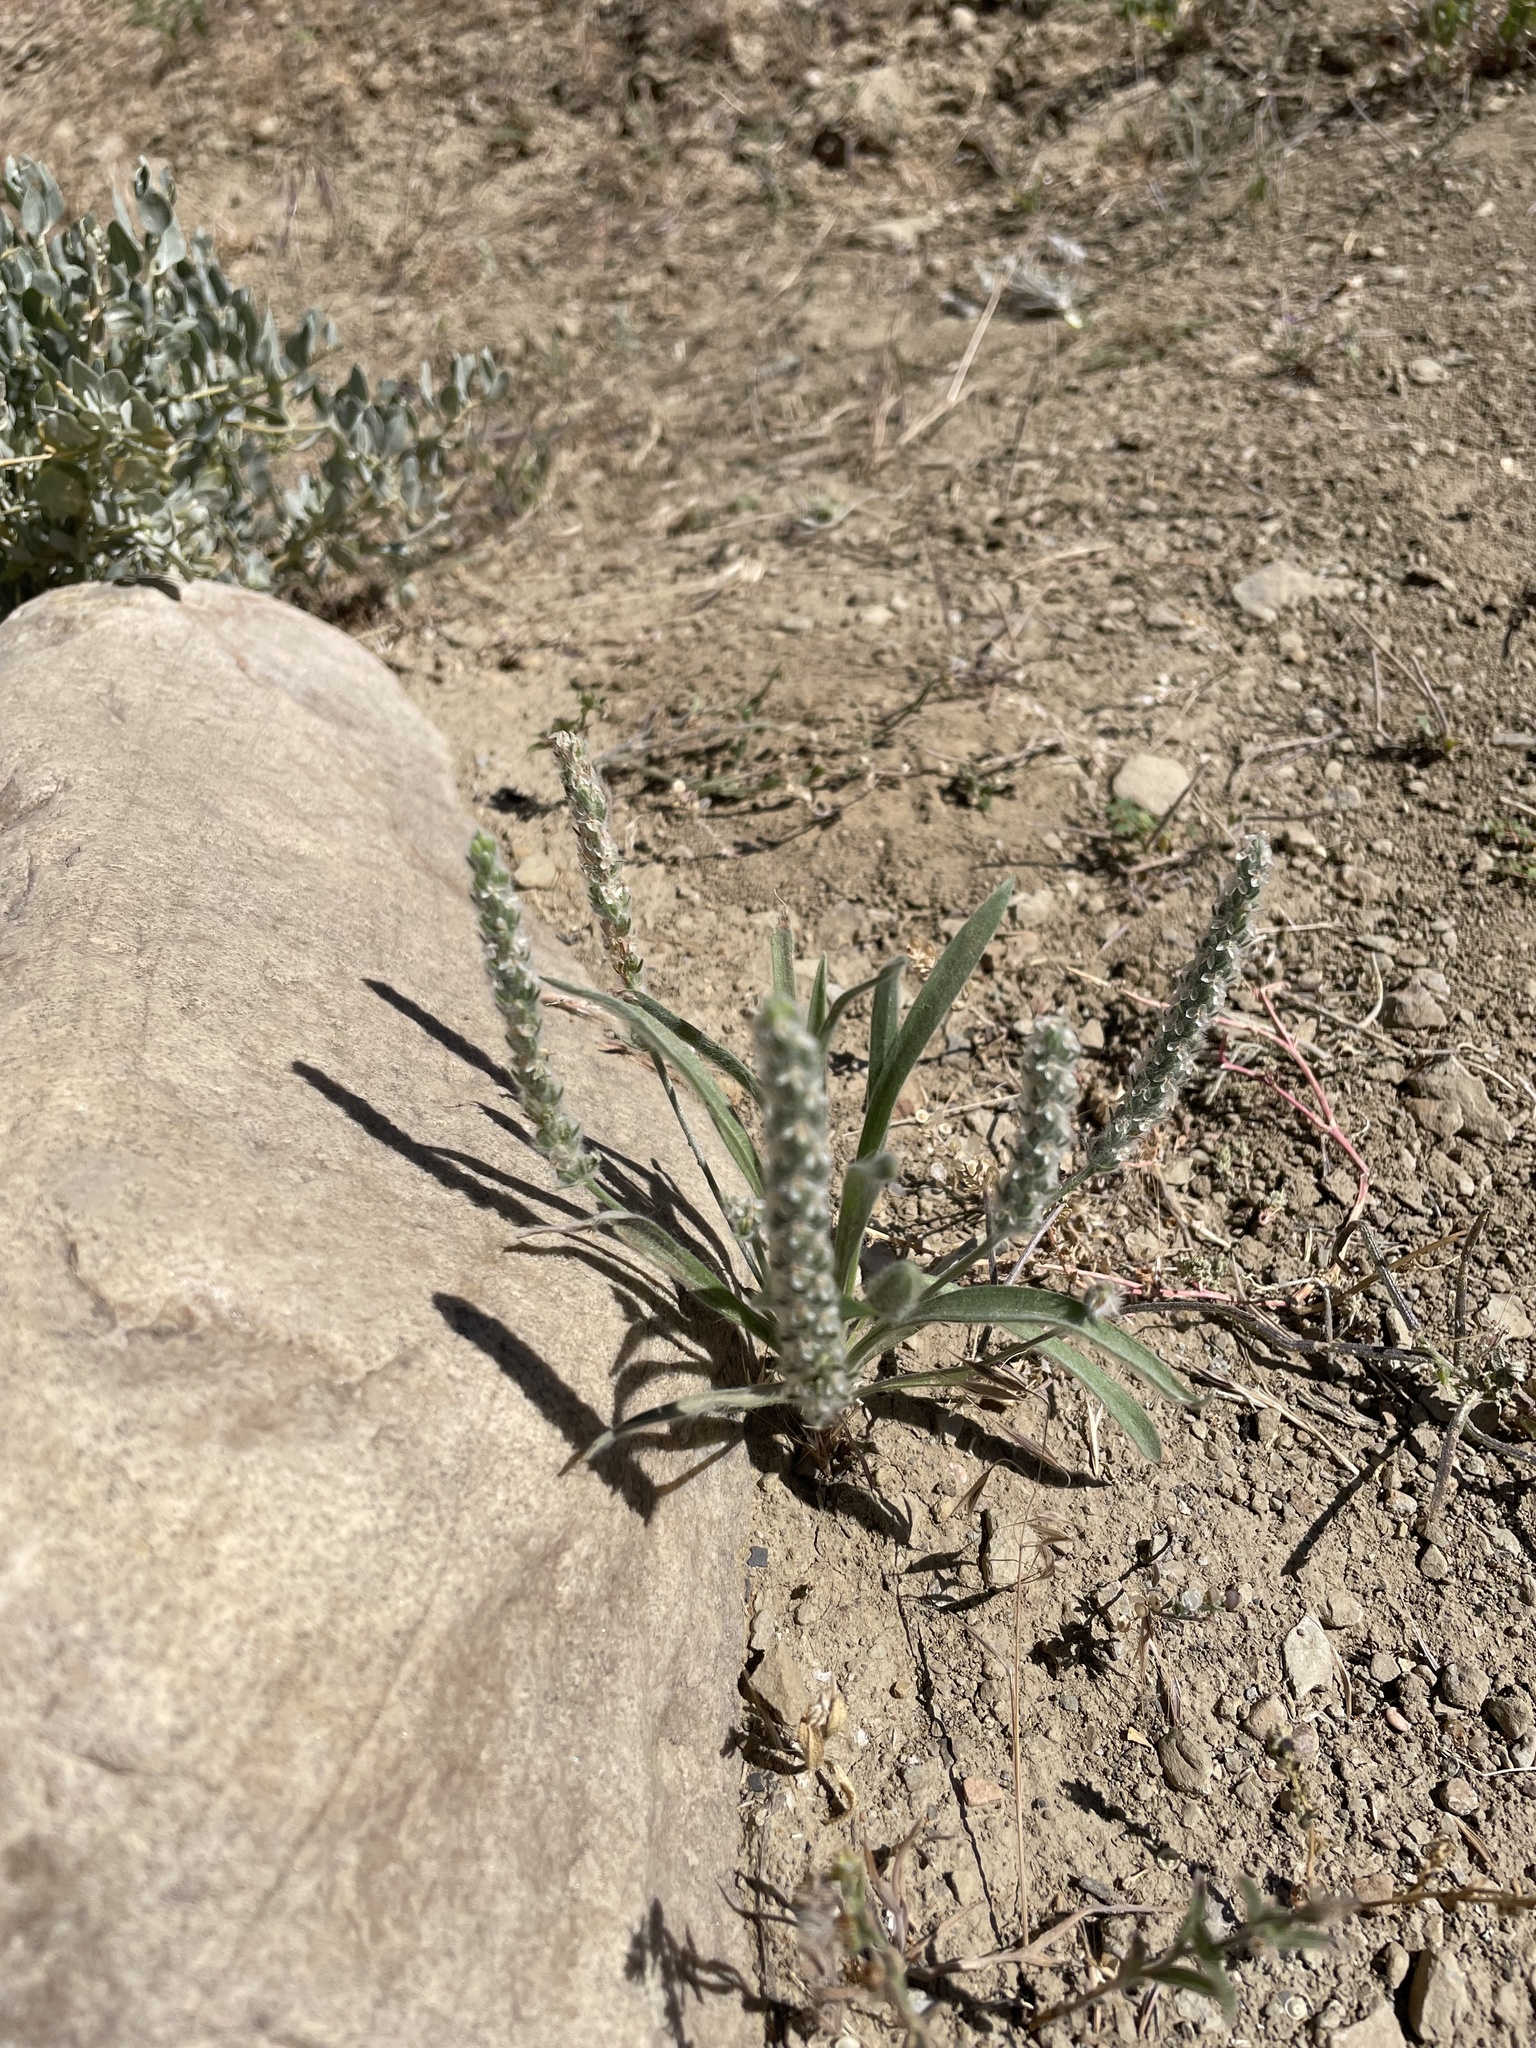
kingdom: Plantae
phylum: Tracheophyta
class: Magnoliopsida
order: Lamiales
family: Plantaginaceae
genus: Plantago
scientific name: Plantago patagonica
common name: Patagonia indian-wheat
